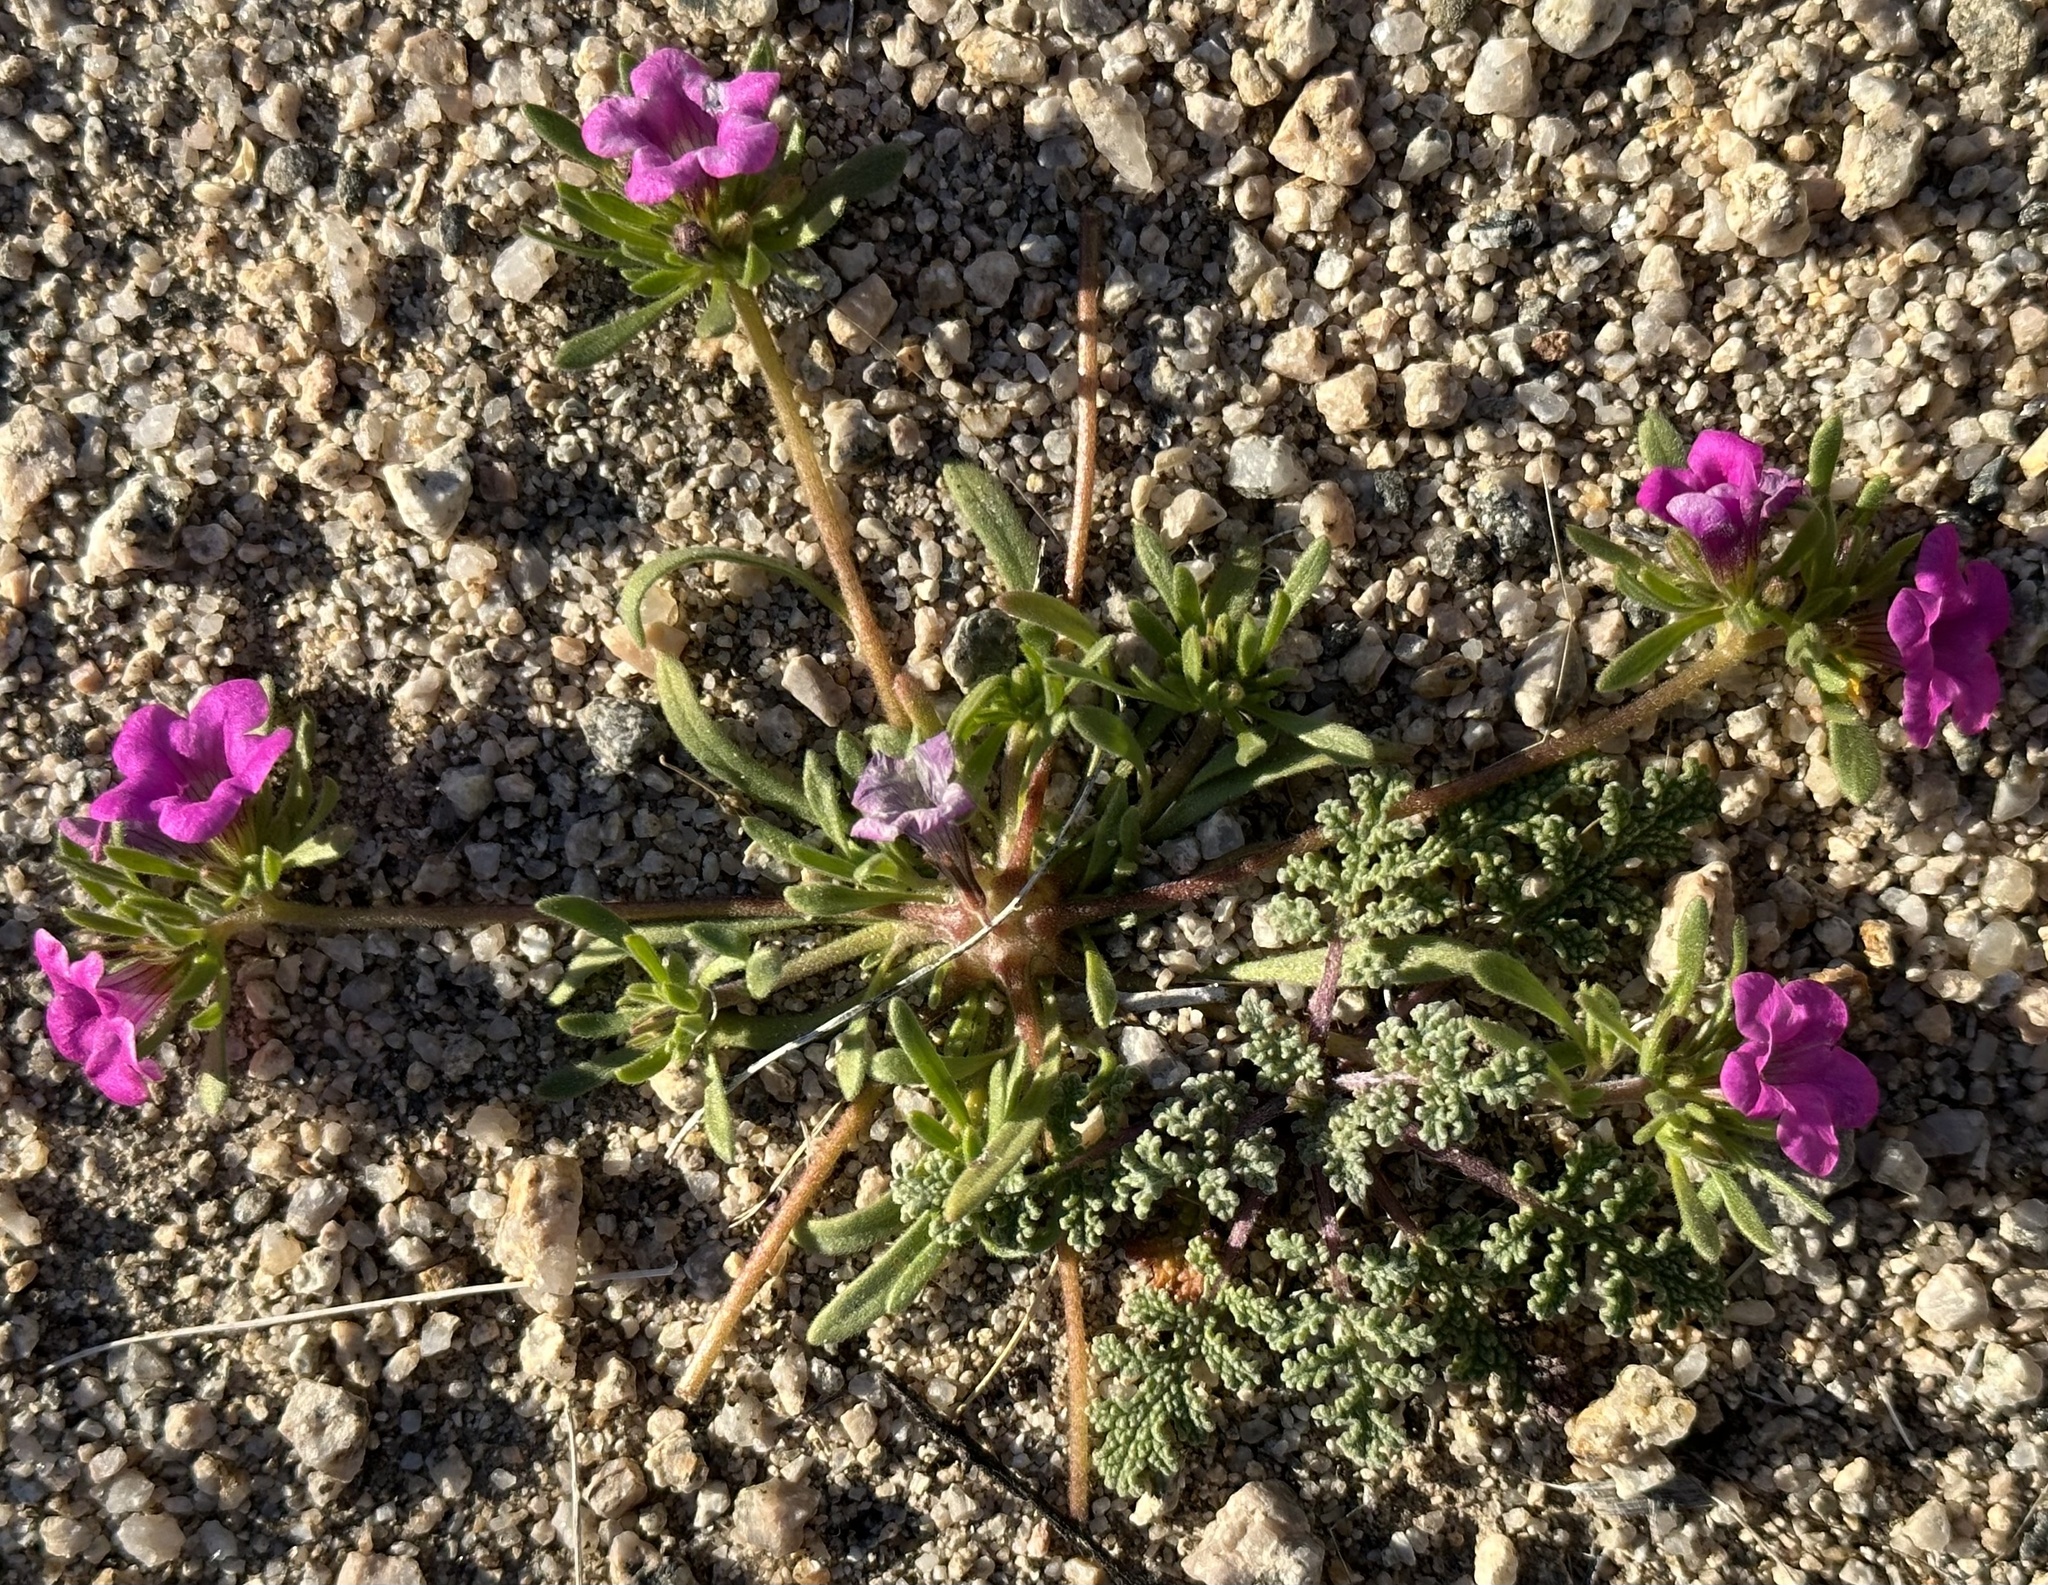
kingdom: Plantae
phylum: Tracheophyta
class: Magnoliopsida
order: Boraginales
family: Namaceae
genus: Nama
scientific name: Nama demissa
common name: Leafy nama
